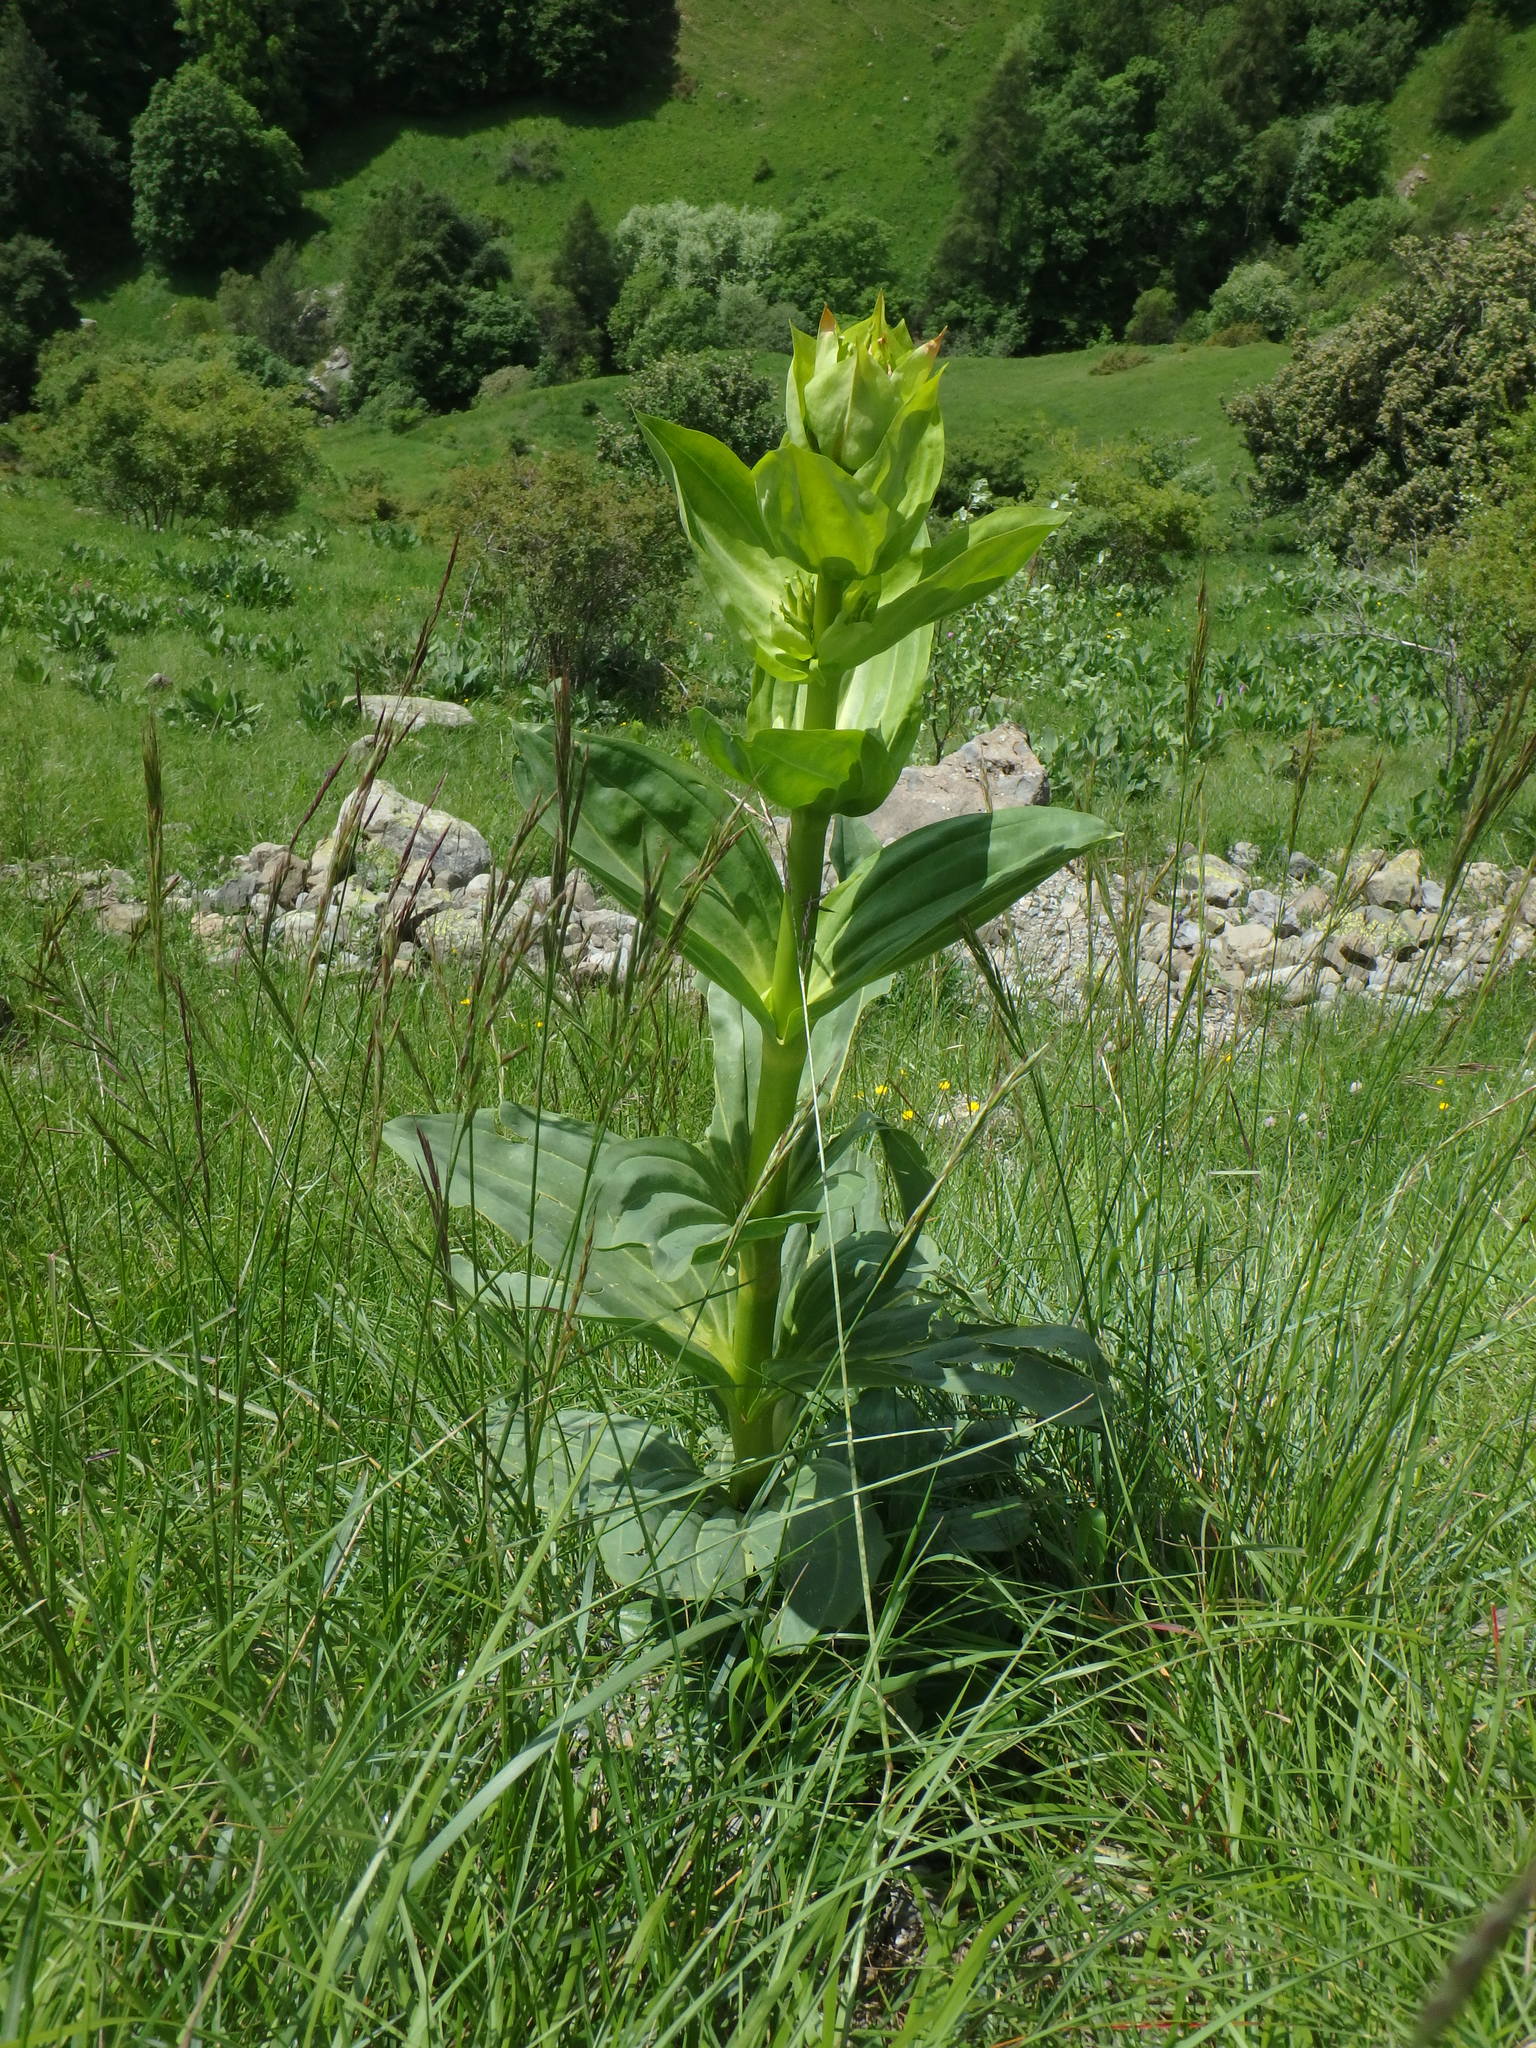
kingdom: Plantae
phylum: Tracheophyta
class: Magnoliopsida
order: Gentianales
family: Gentianaceae
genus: Gentiana
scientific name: Gentiana lutea
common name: Great yellow gentian
